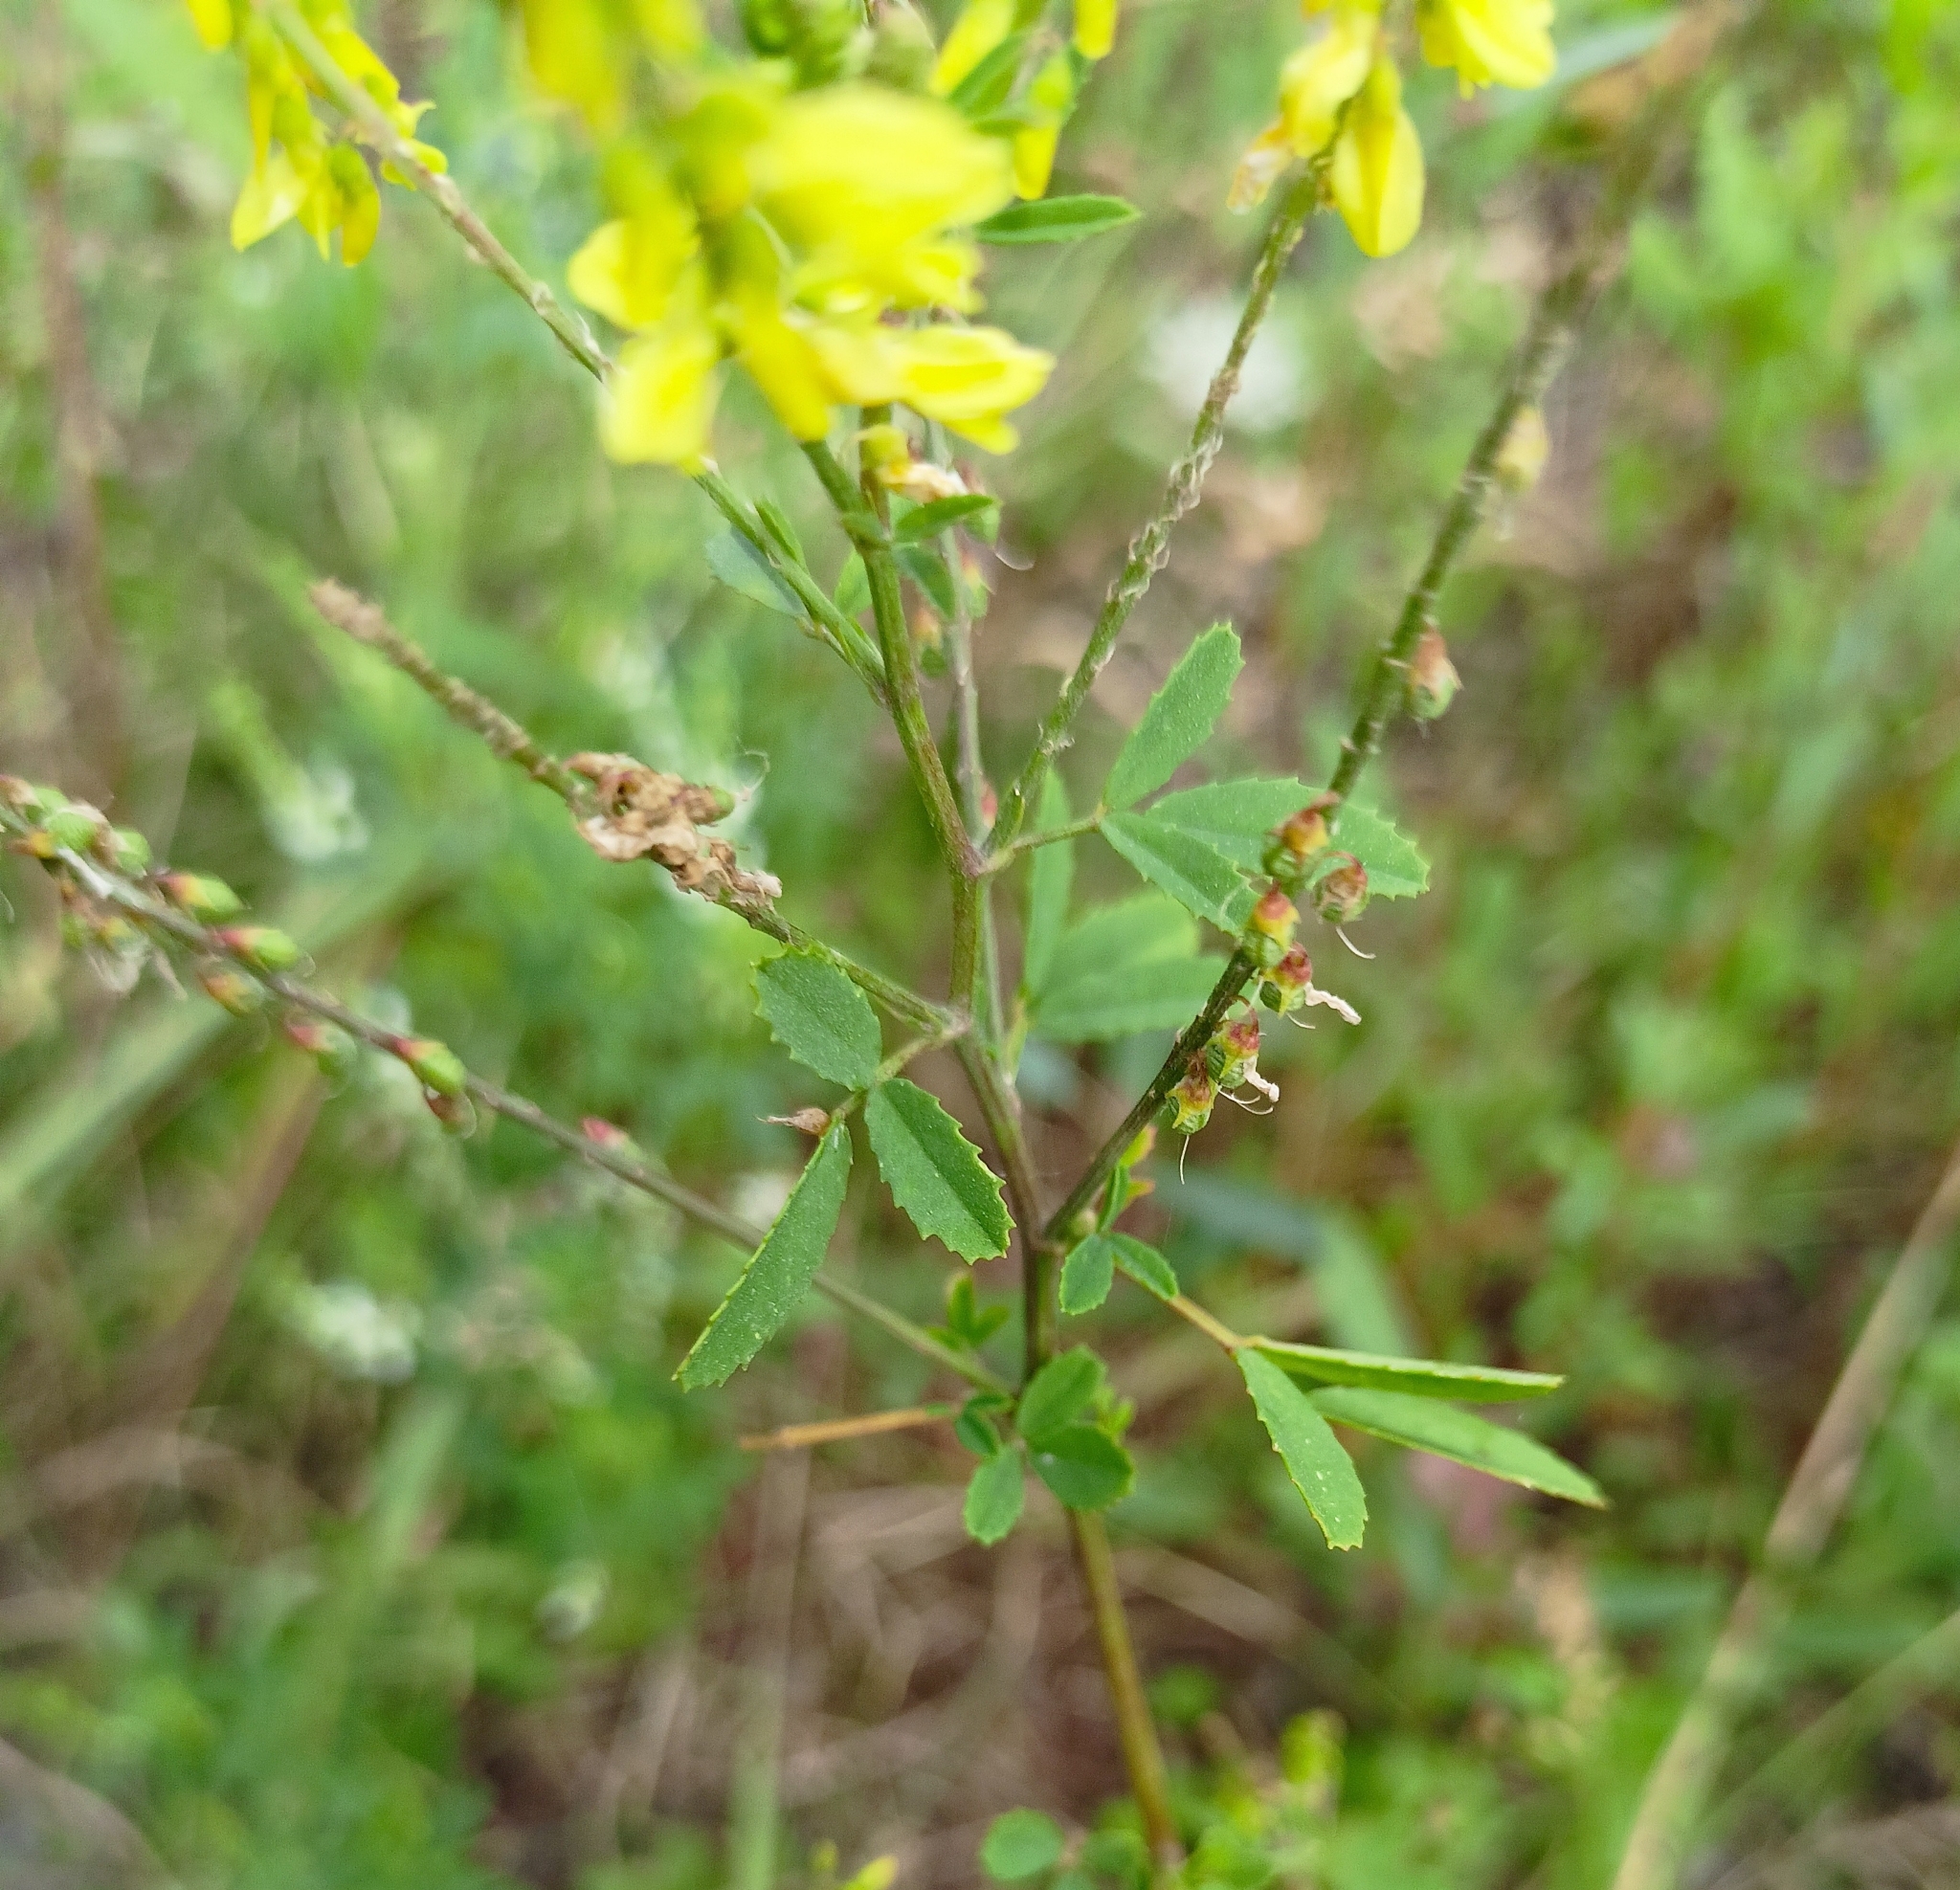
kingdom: Plantae
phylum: Tracheophyta
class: Magnoliopsida
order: Fabales
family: Fabaceae
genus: Melilotus
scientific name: Melilotus officinalis
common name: Sweetclover
